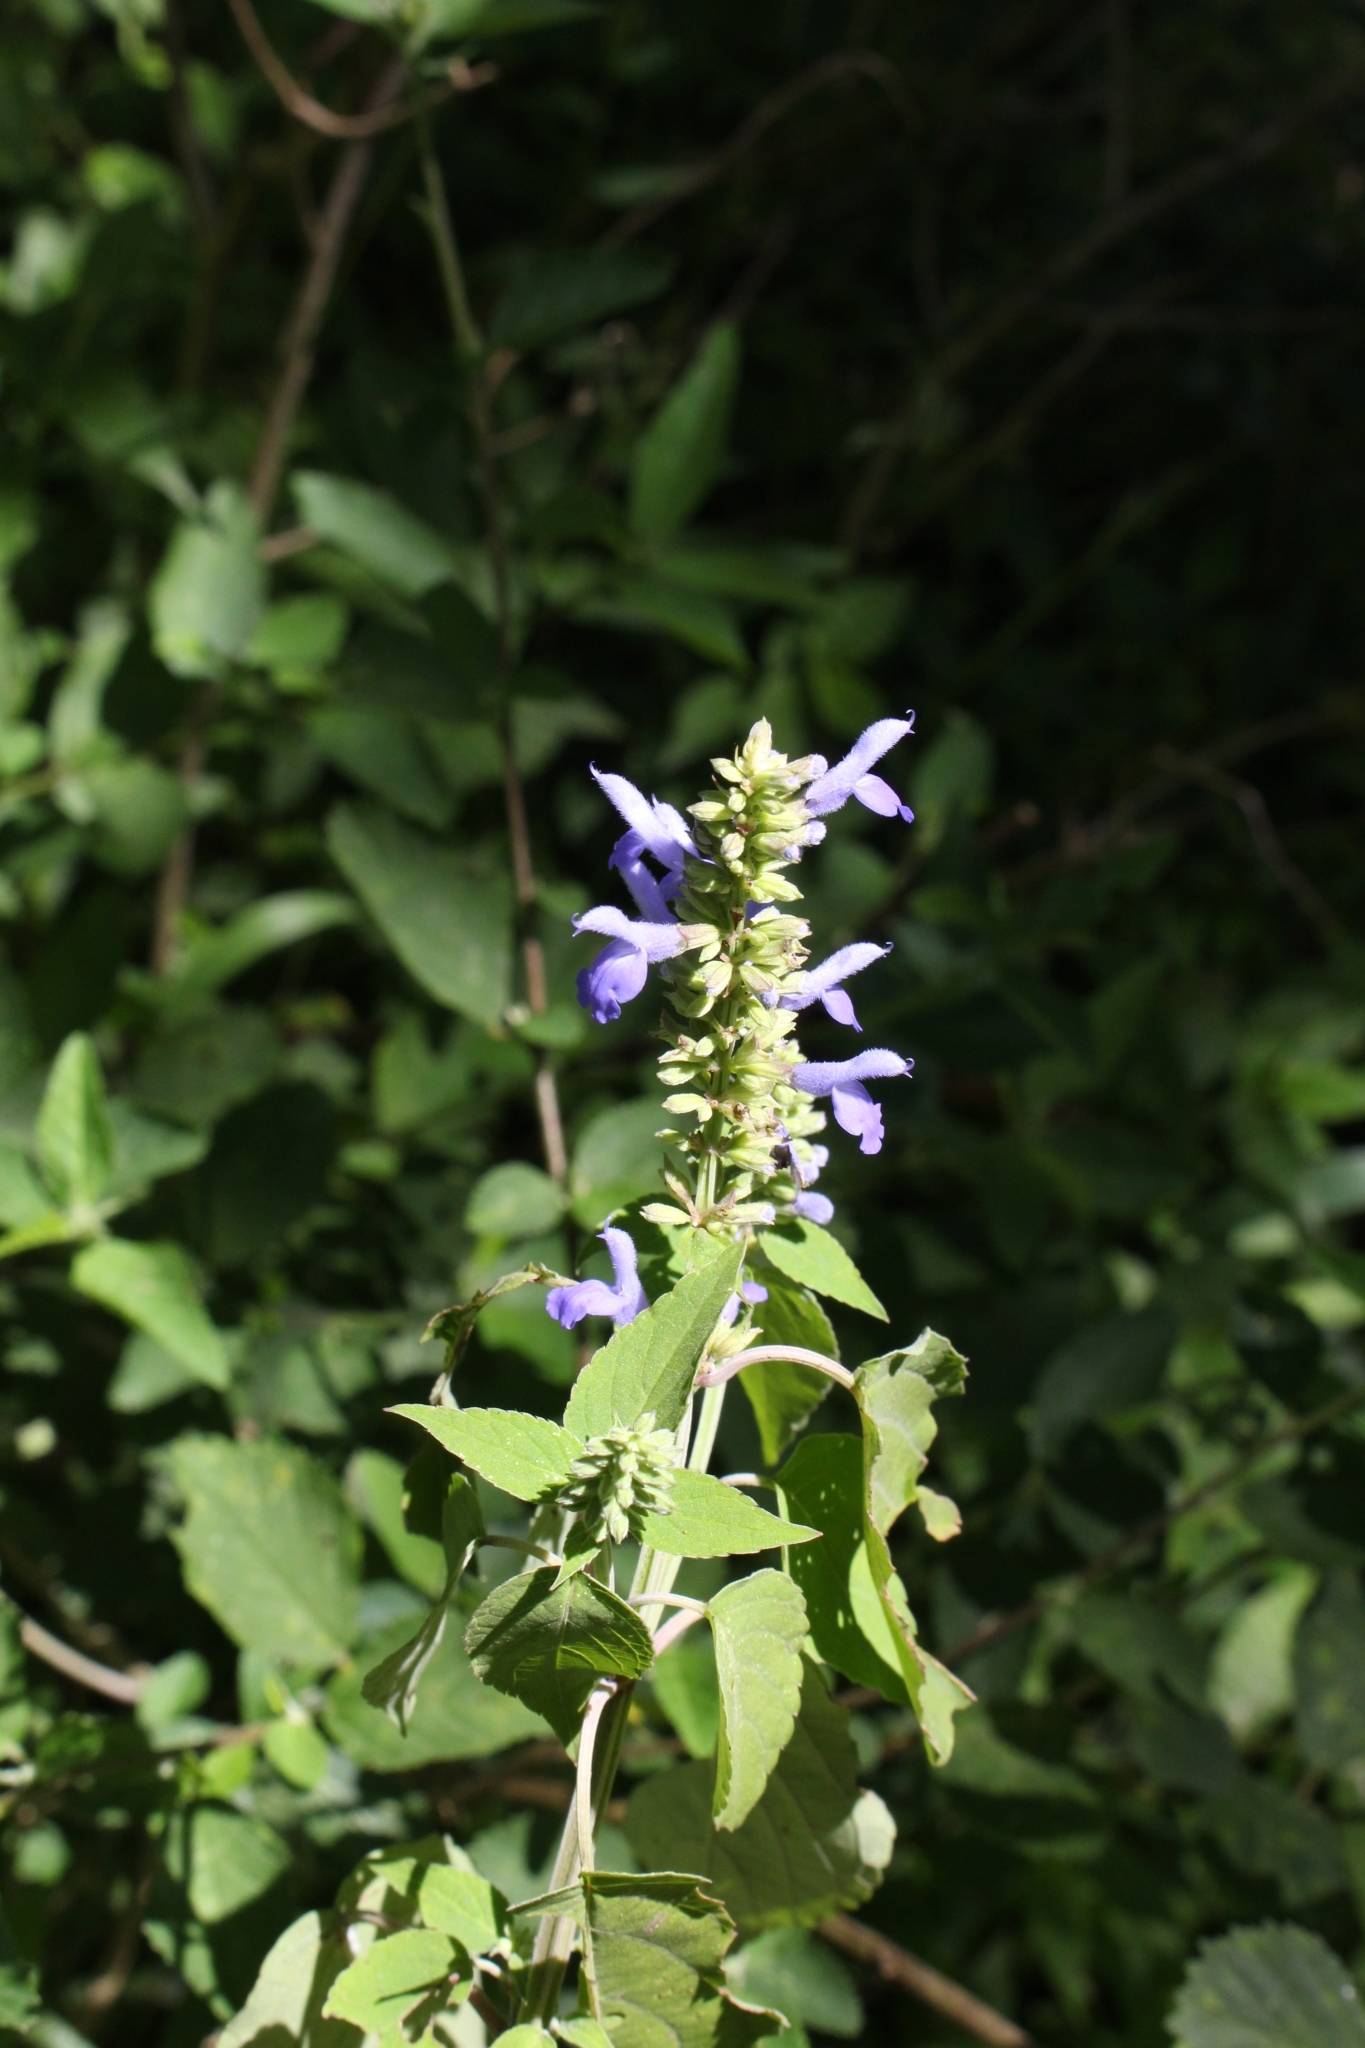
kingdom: Plantae
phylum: Tracheophyta
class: Magnoliopsida
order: Lamiales
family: Lamiaceae
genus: Salvia
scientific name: Salvia polystachia
